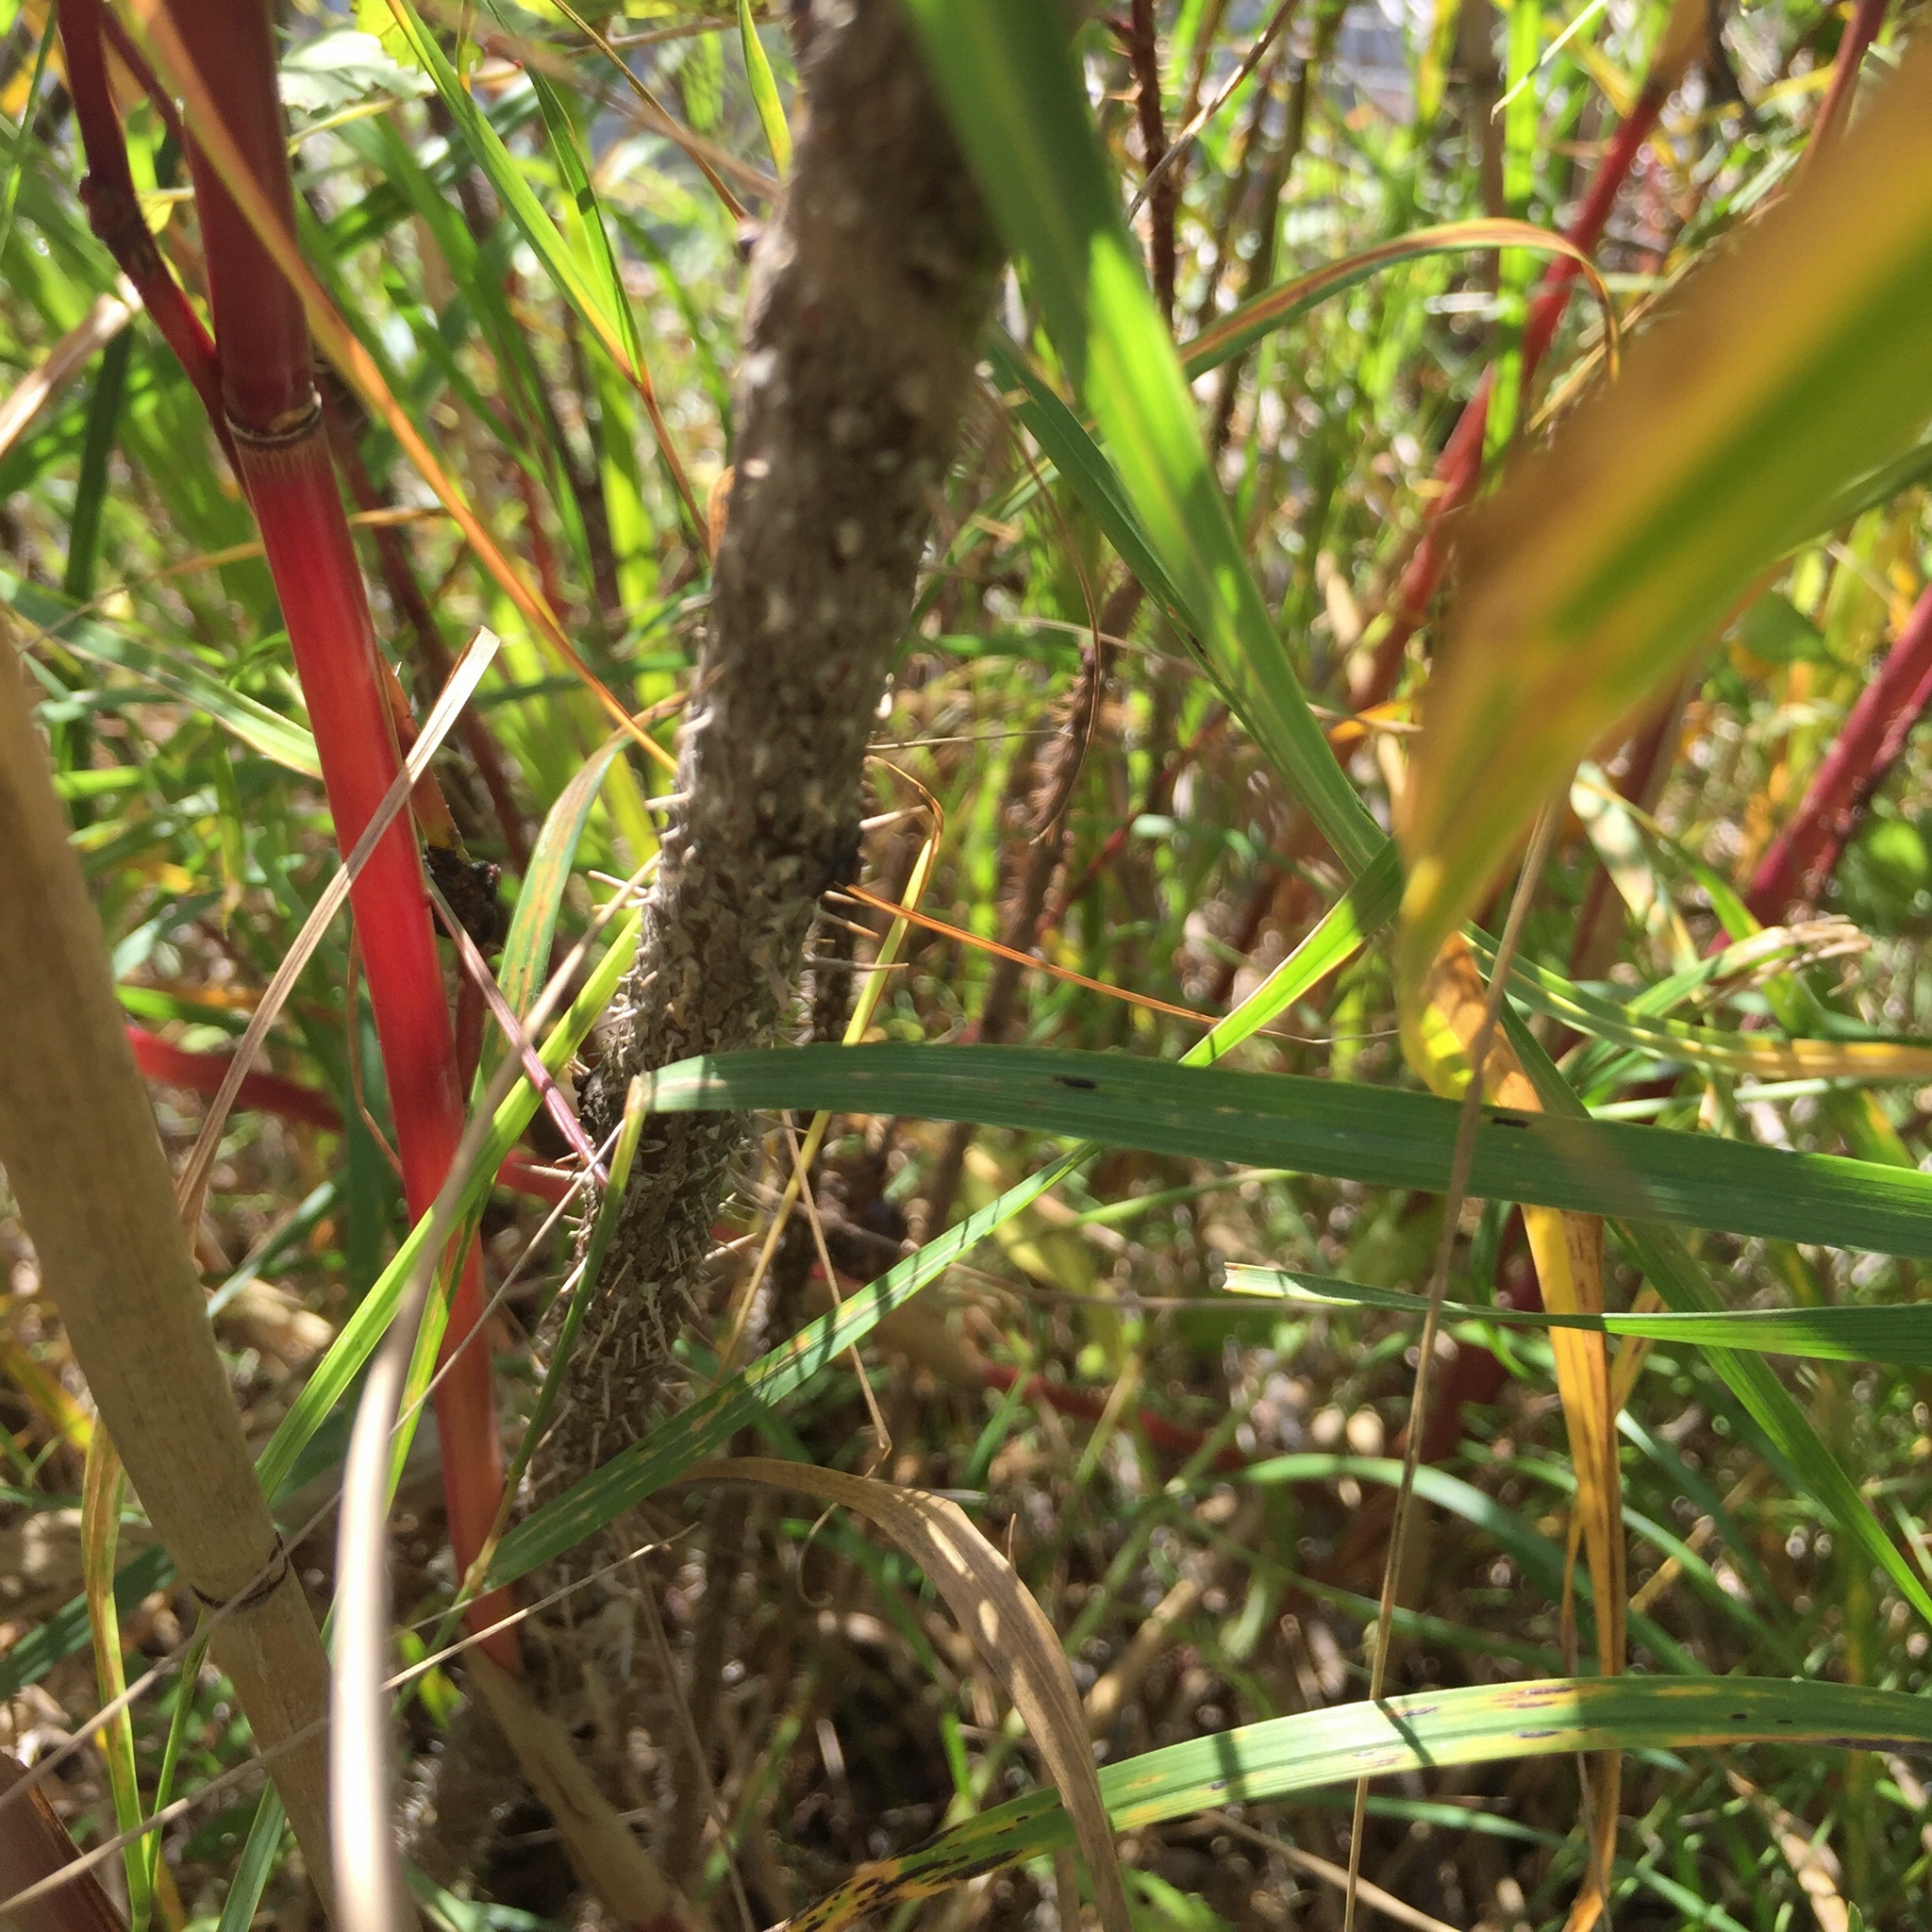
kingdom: Plantae
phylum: Tracheophyta
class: Magnoliopsida
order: Rosales
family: Rosaceae
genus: Rosa
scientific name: Rosa acicularis
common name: Prickly rose
